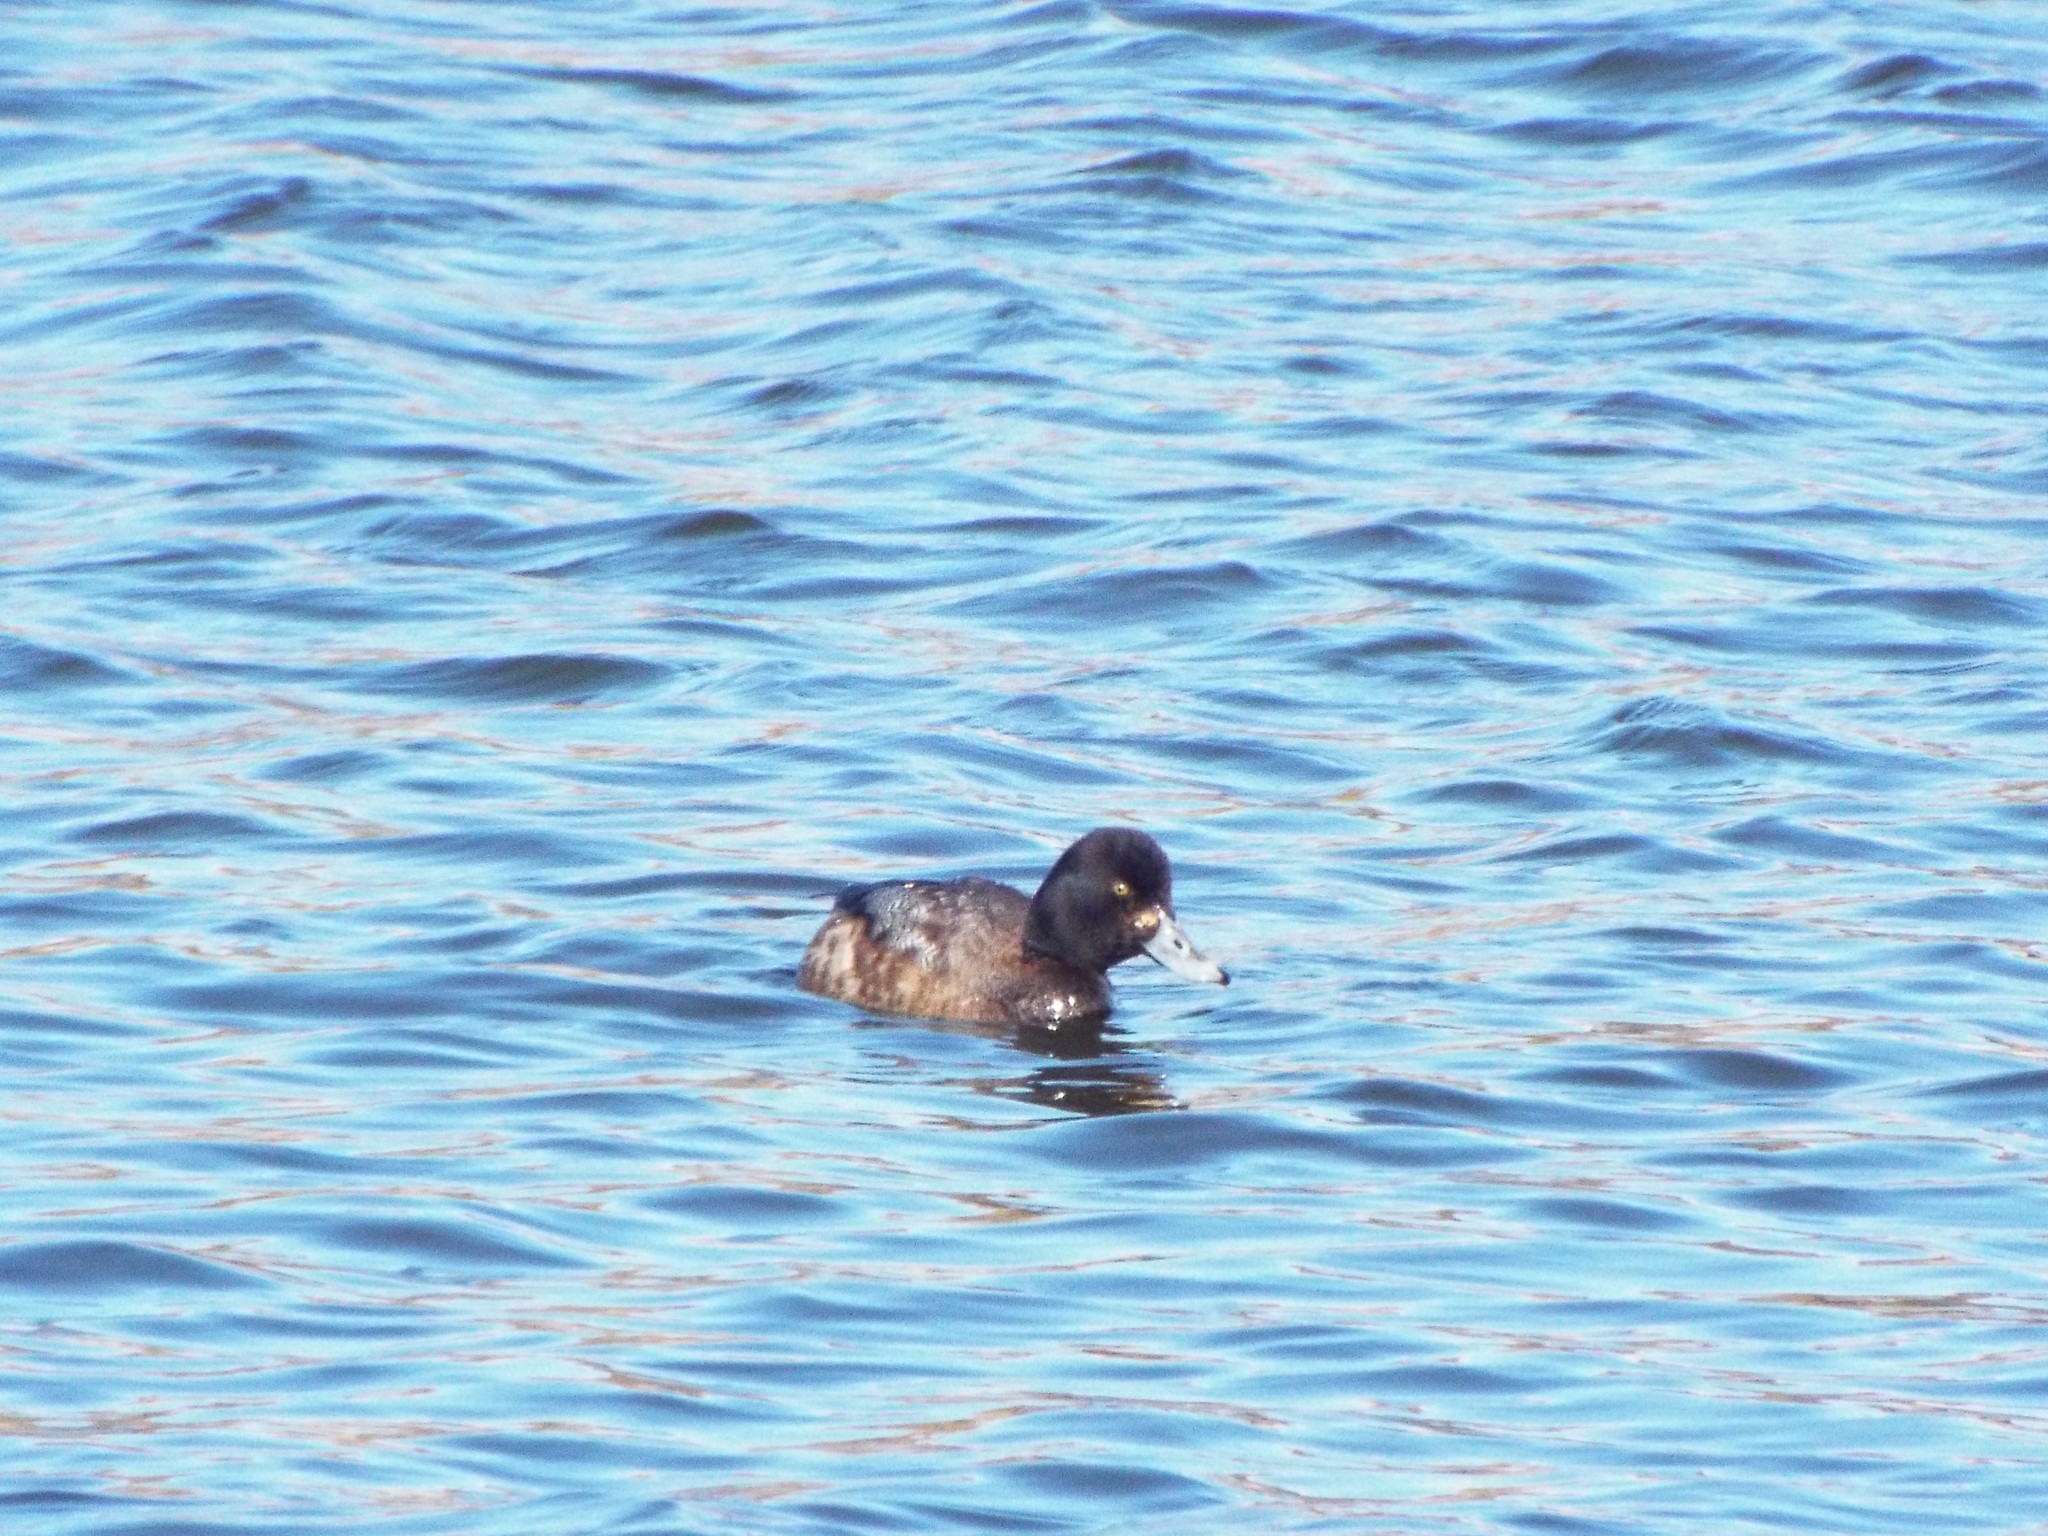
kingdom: Animalia
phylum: Chordata
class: Aves
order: Anseriformes
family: Anatidae
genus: Aythya
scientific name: Aythya affinis
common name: Lesser scaup
